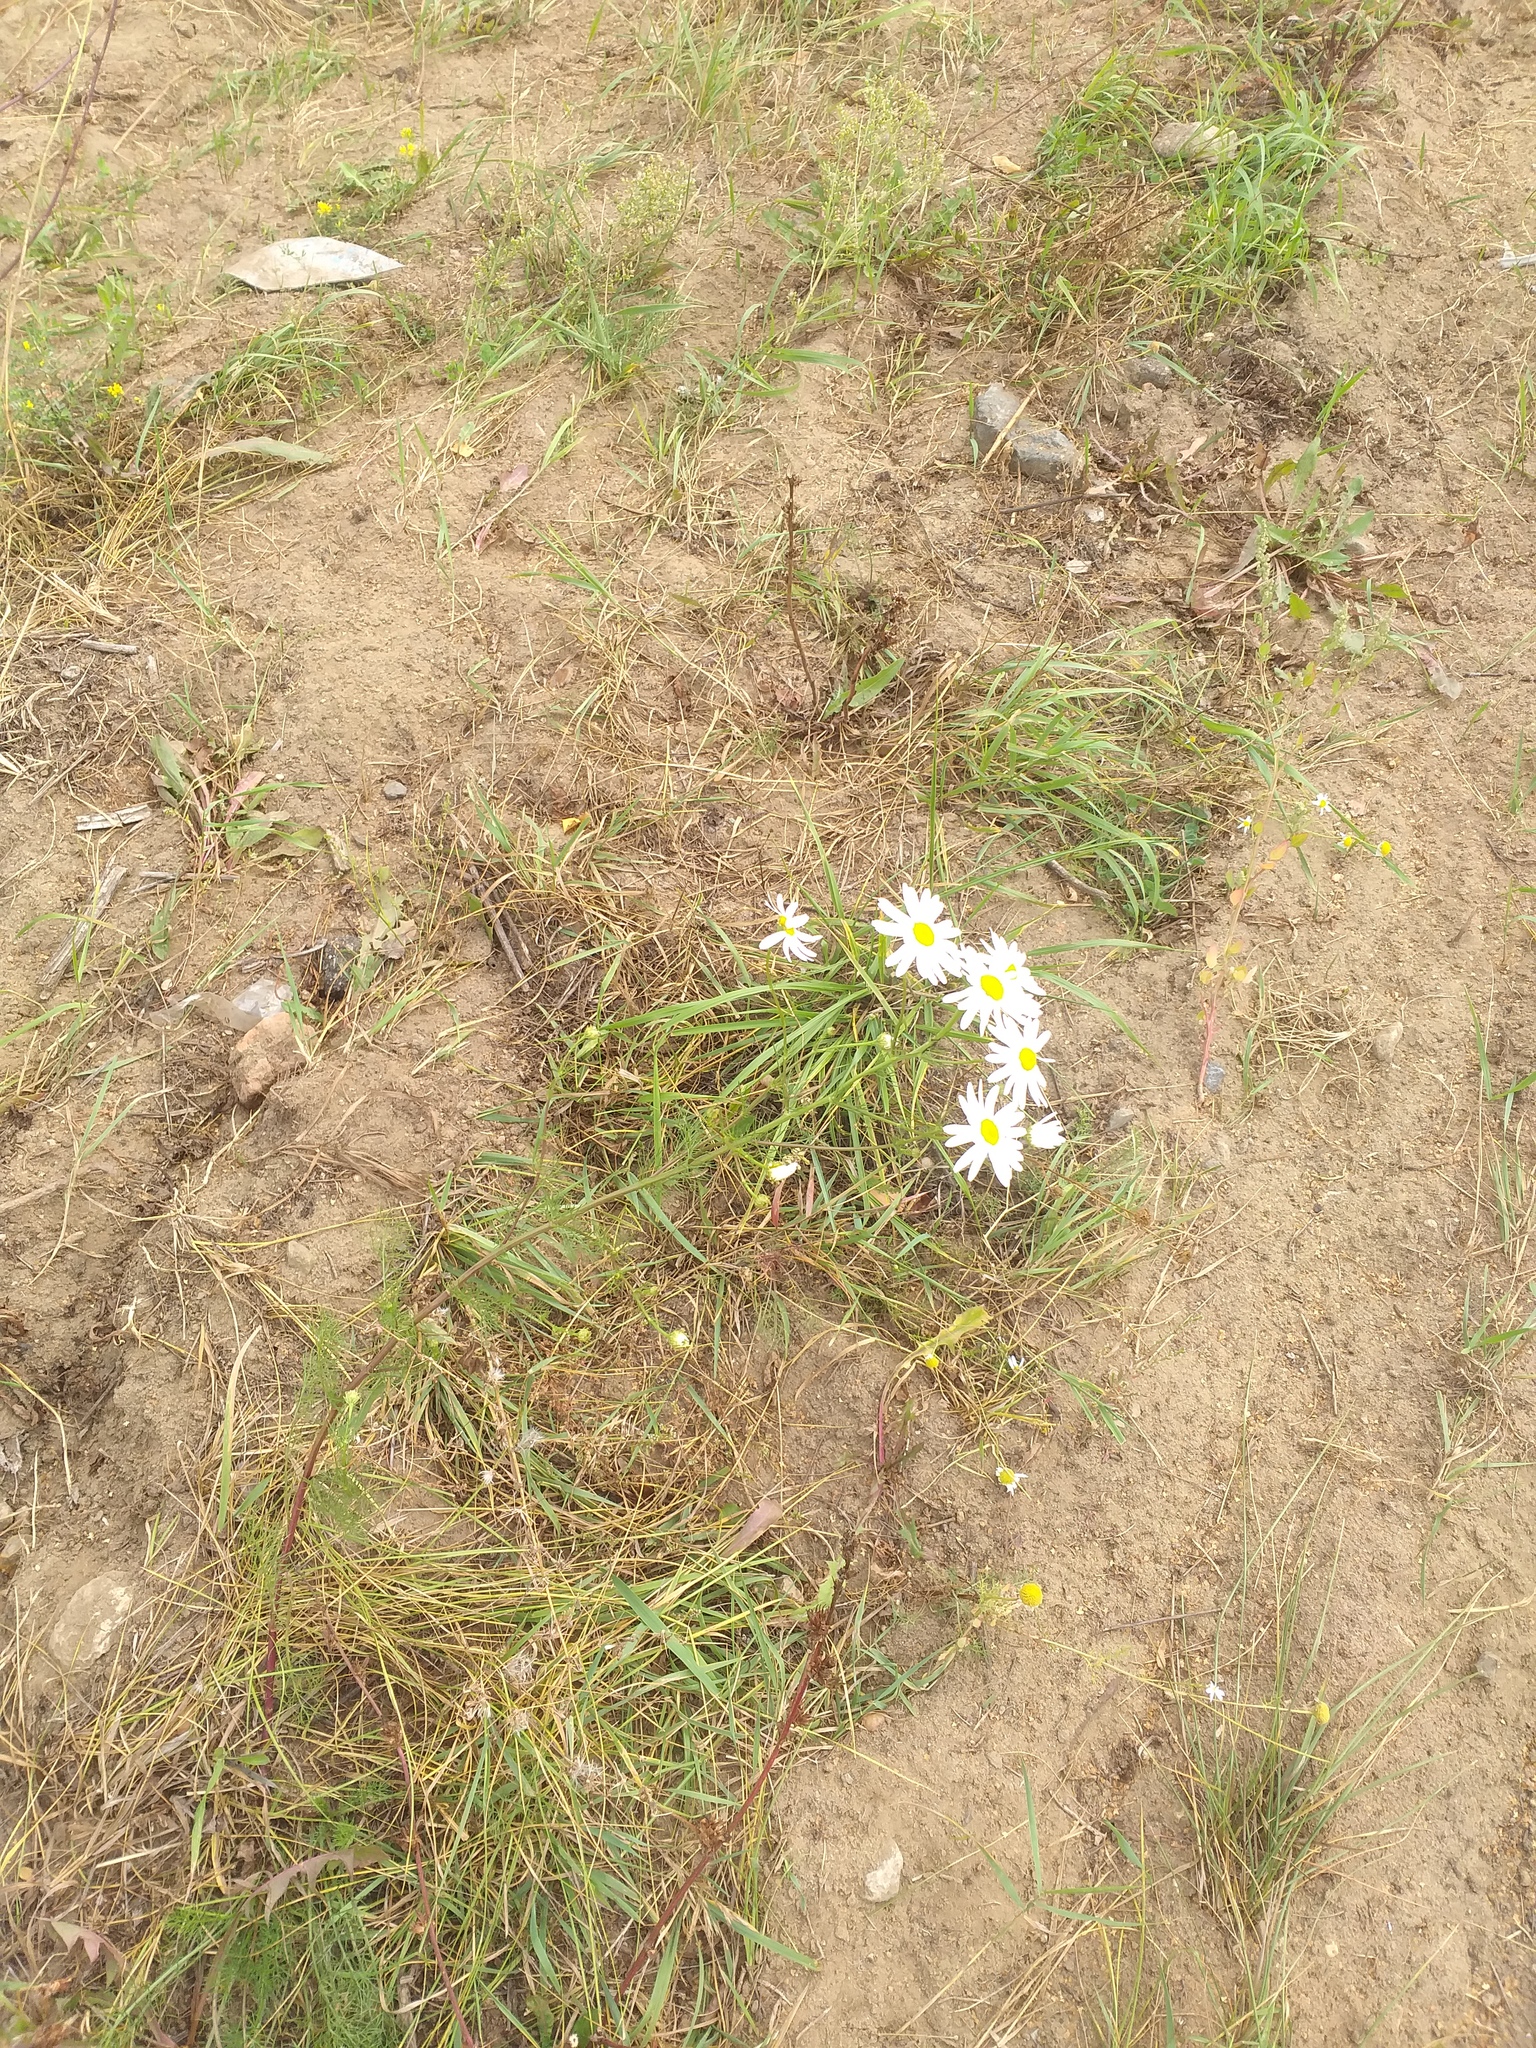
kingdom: Plantae
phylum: Tracheophyta
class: Magnoliopsida
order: Asterales
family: Asteraceae
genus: Tripleurospermum
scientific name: Tripleurospermum inodorum
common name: Scentless mayweed
